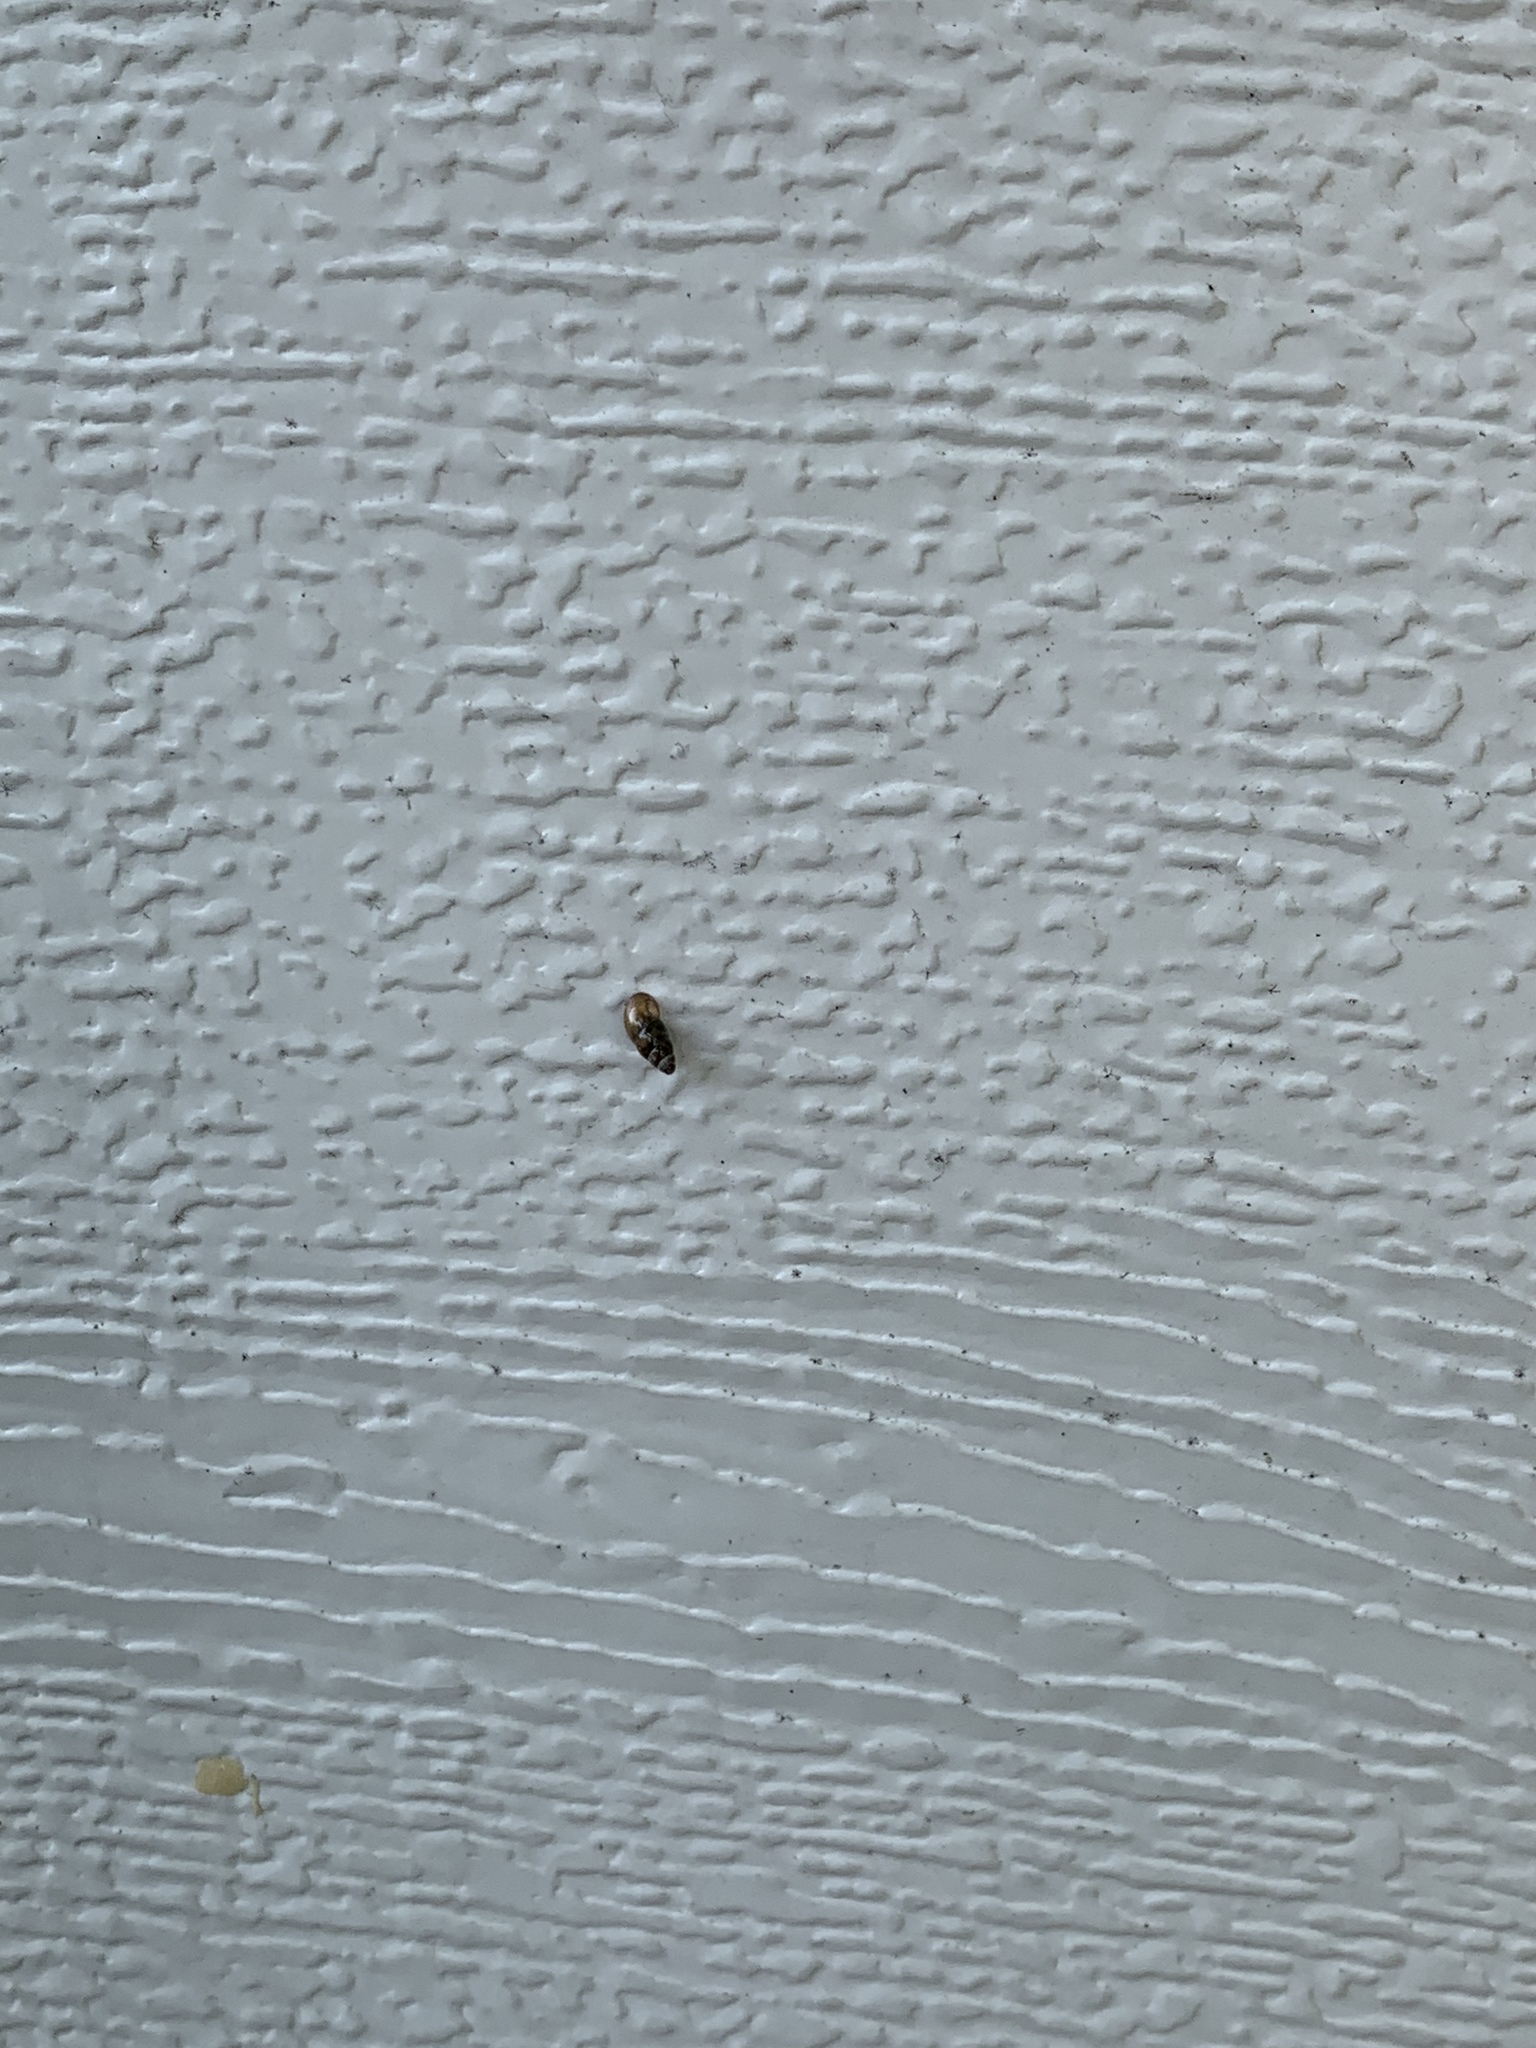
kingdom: Animalia
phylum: Mollusca
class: Gastropoda
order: Stylommatophora
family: Cochlicopidae
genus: Cochlicopa
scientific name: Cochlicopa lubrica
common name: Glossy pillar snail
